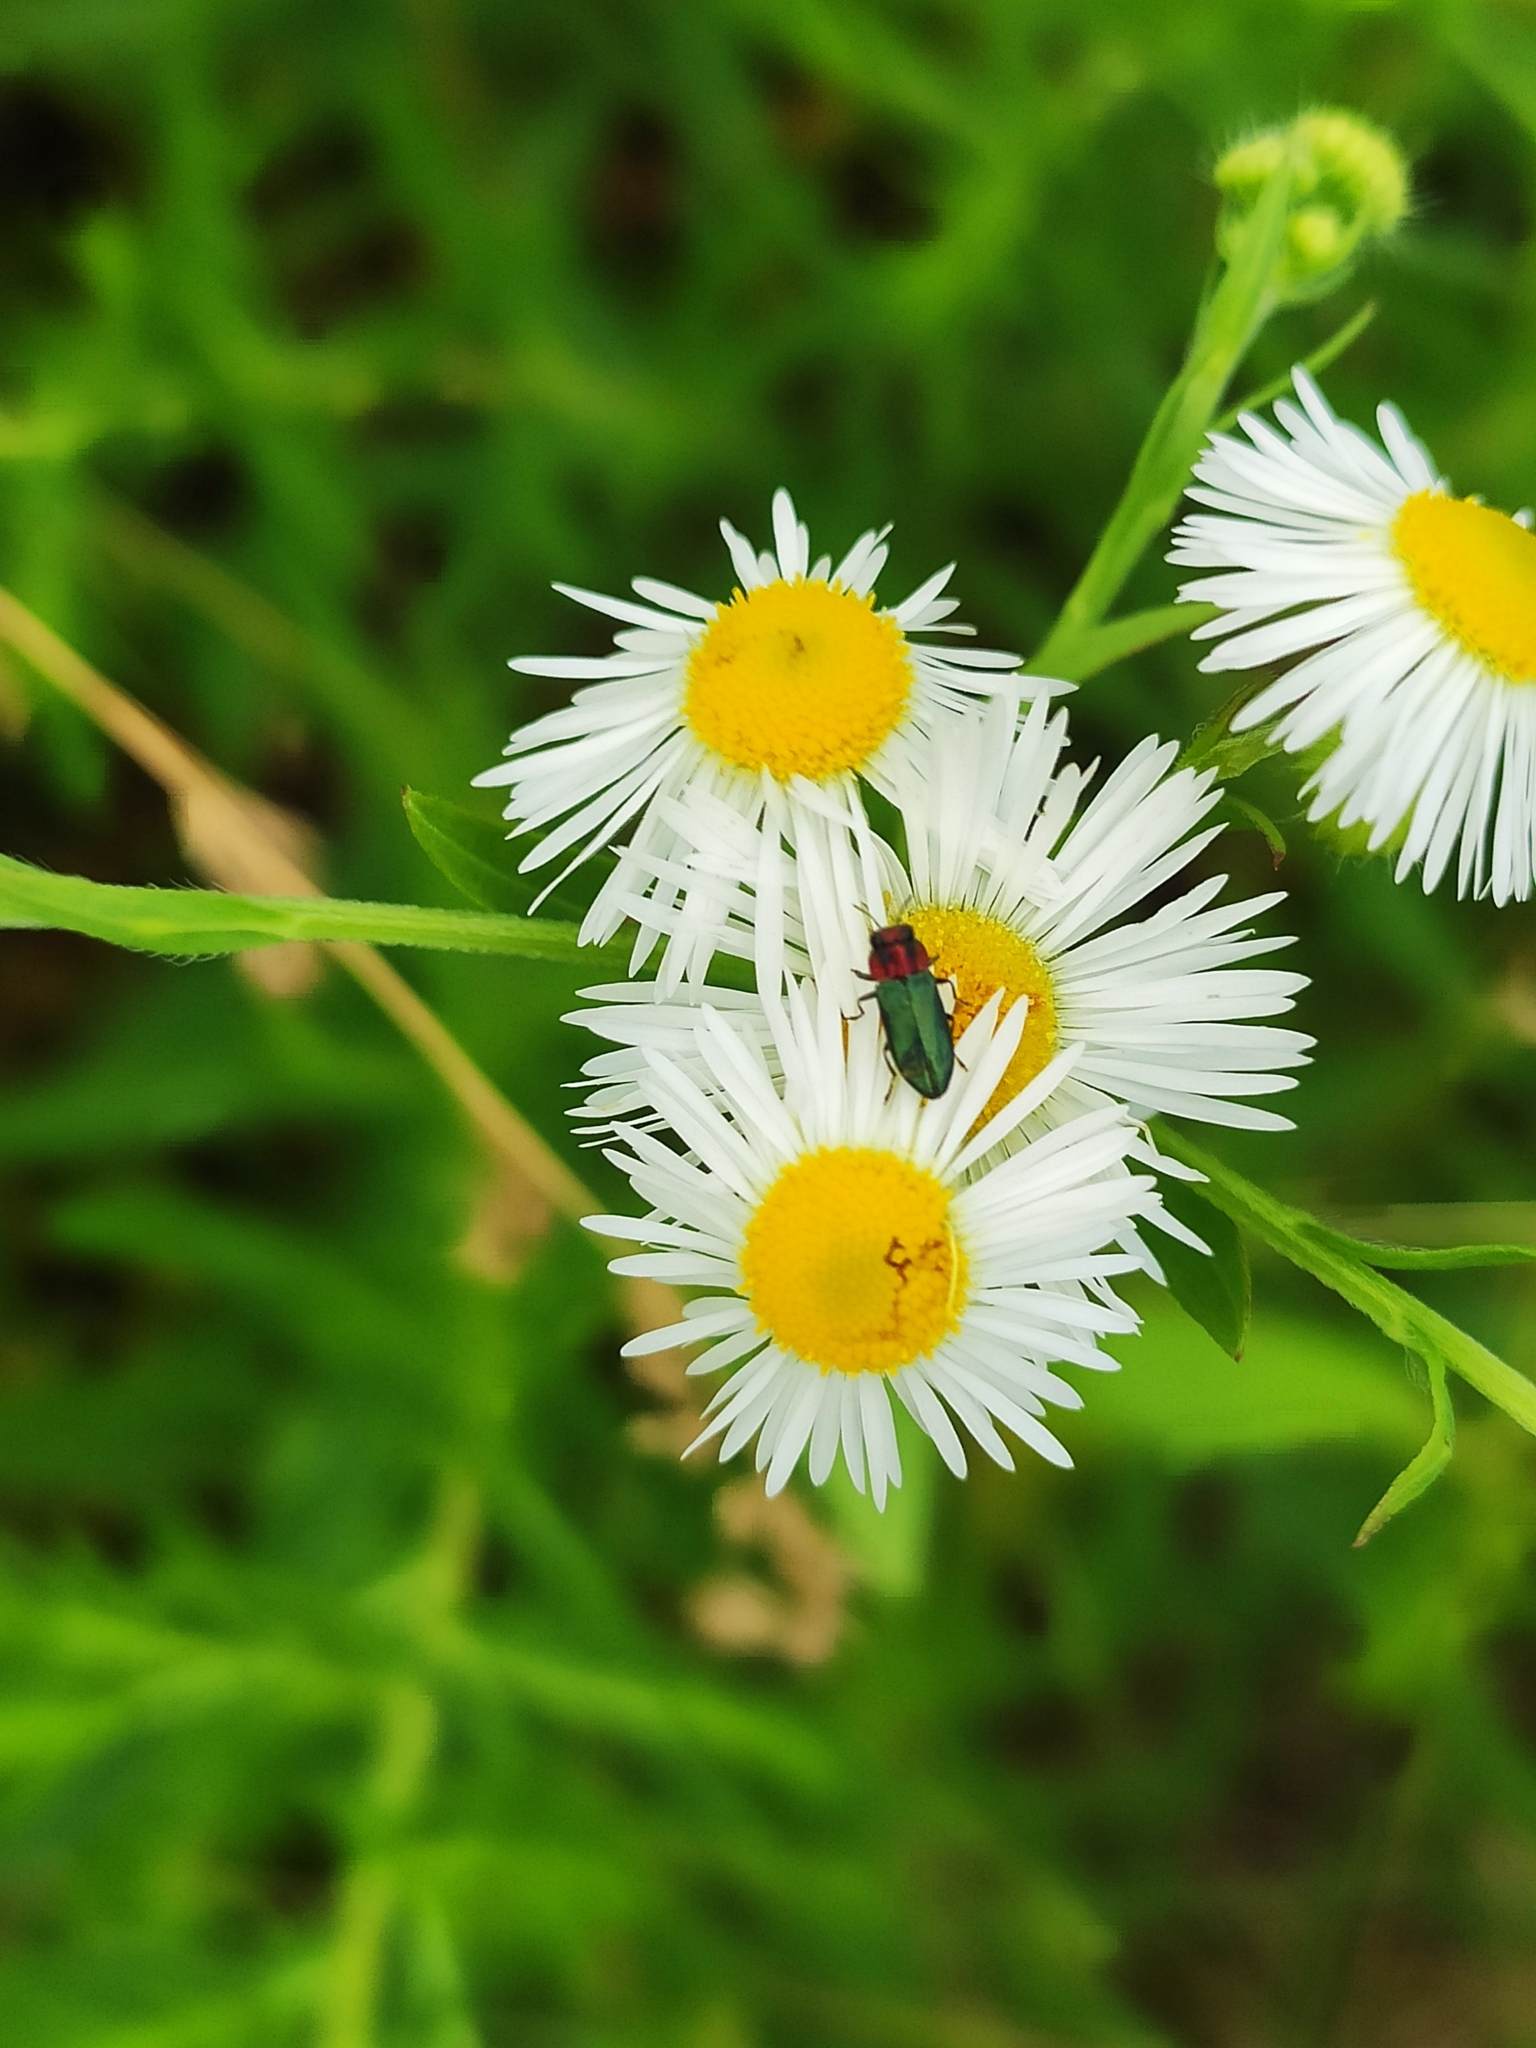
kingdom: Animalia
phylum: Arthropoda
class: Insecta
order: Coleoptera
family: Buprestidae
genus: Anthaxia
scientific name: Anthaxia nitidula
